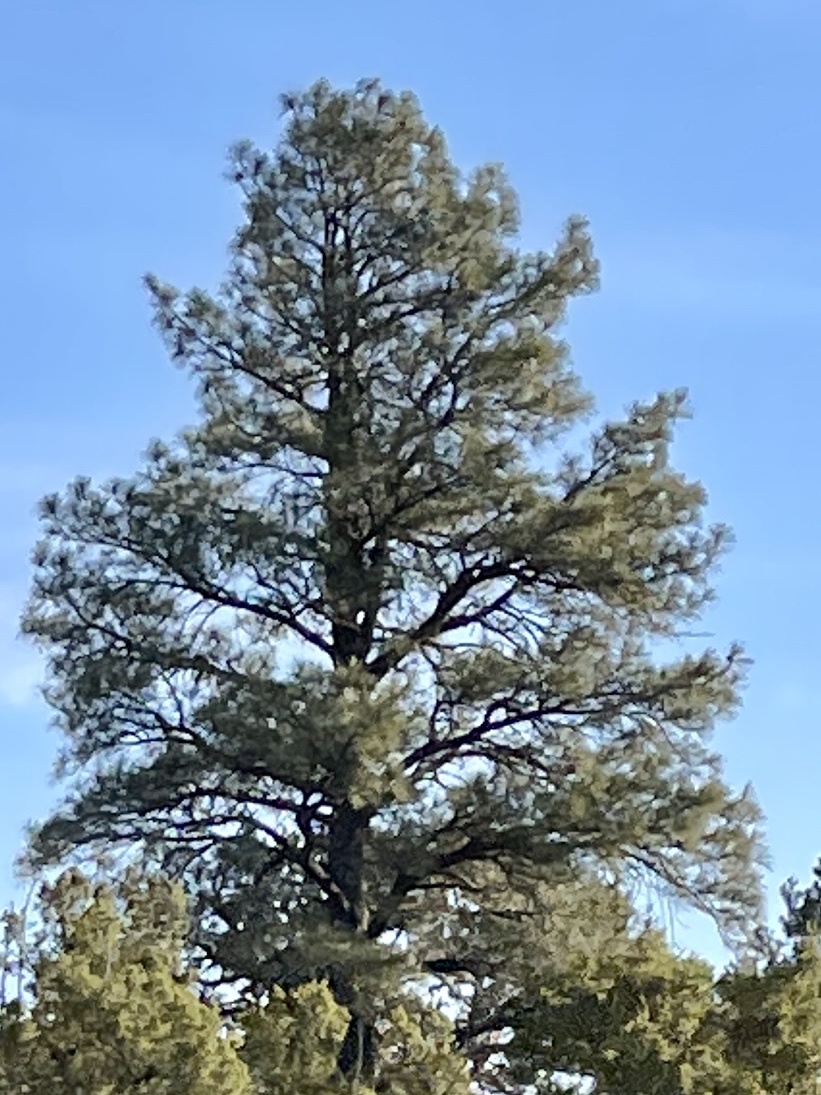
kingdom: Plantae
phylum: Tracheophyta
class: Pinopsida
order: Pinales
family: Pinaceae
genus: Pinus
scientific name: Pinus ponderosa
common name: Western yellow-pine
